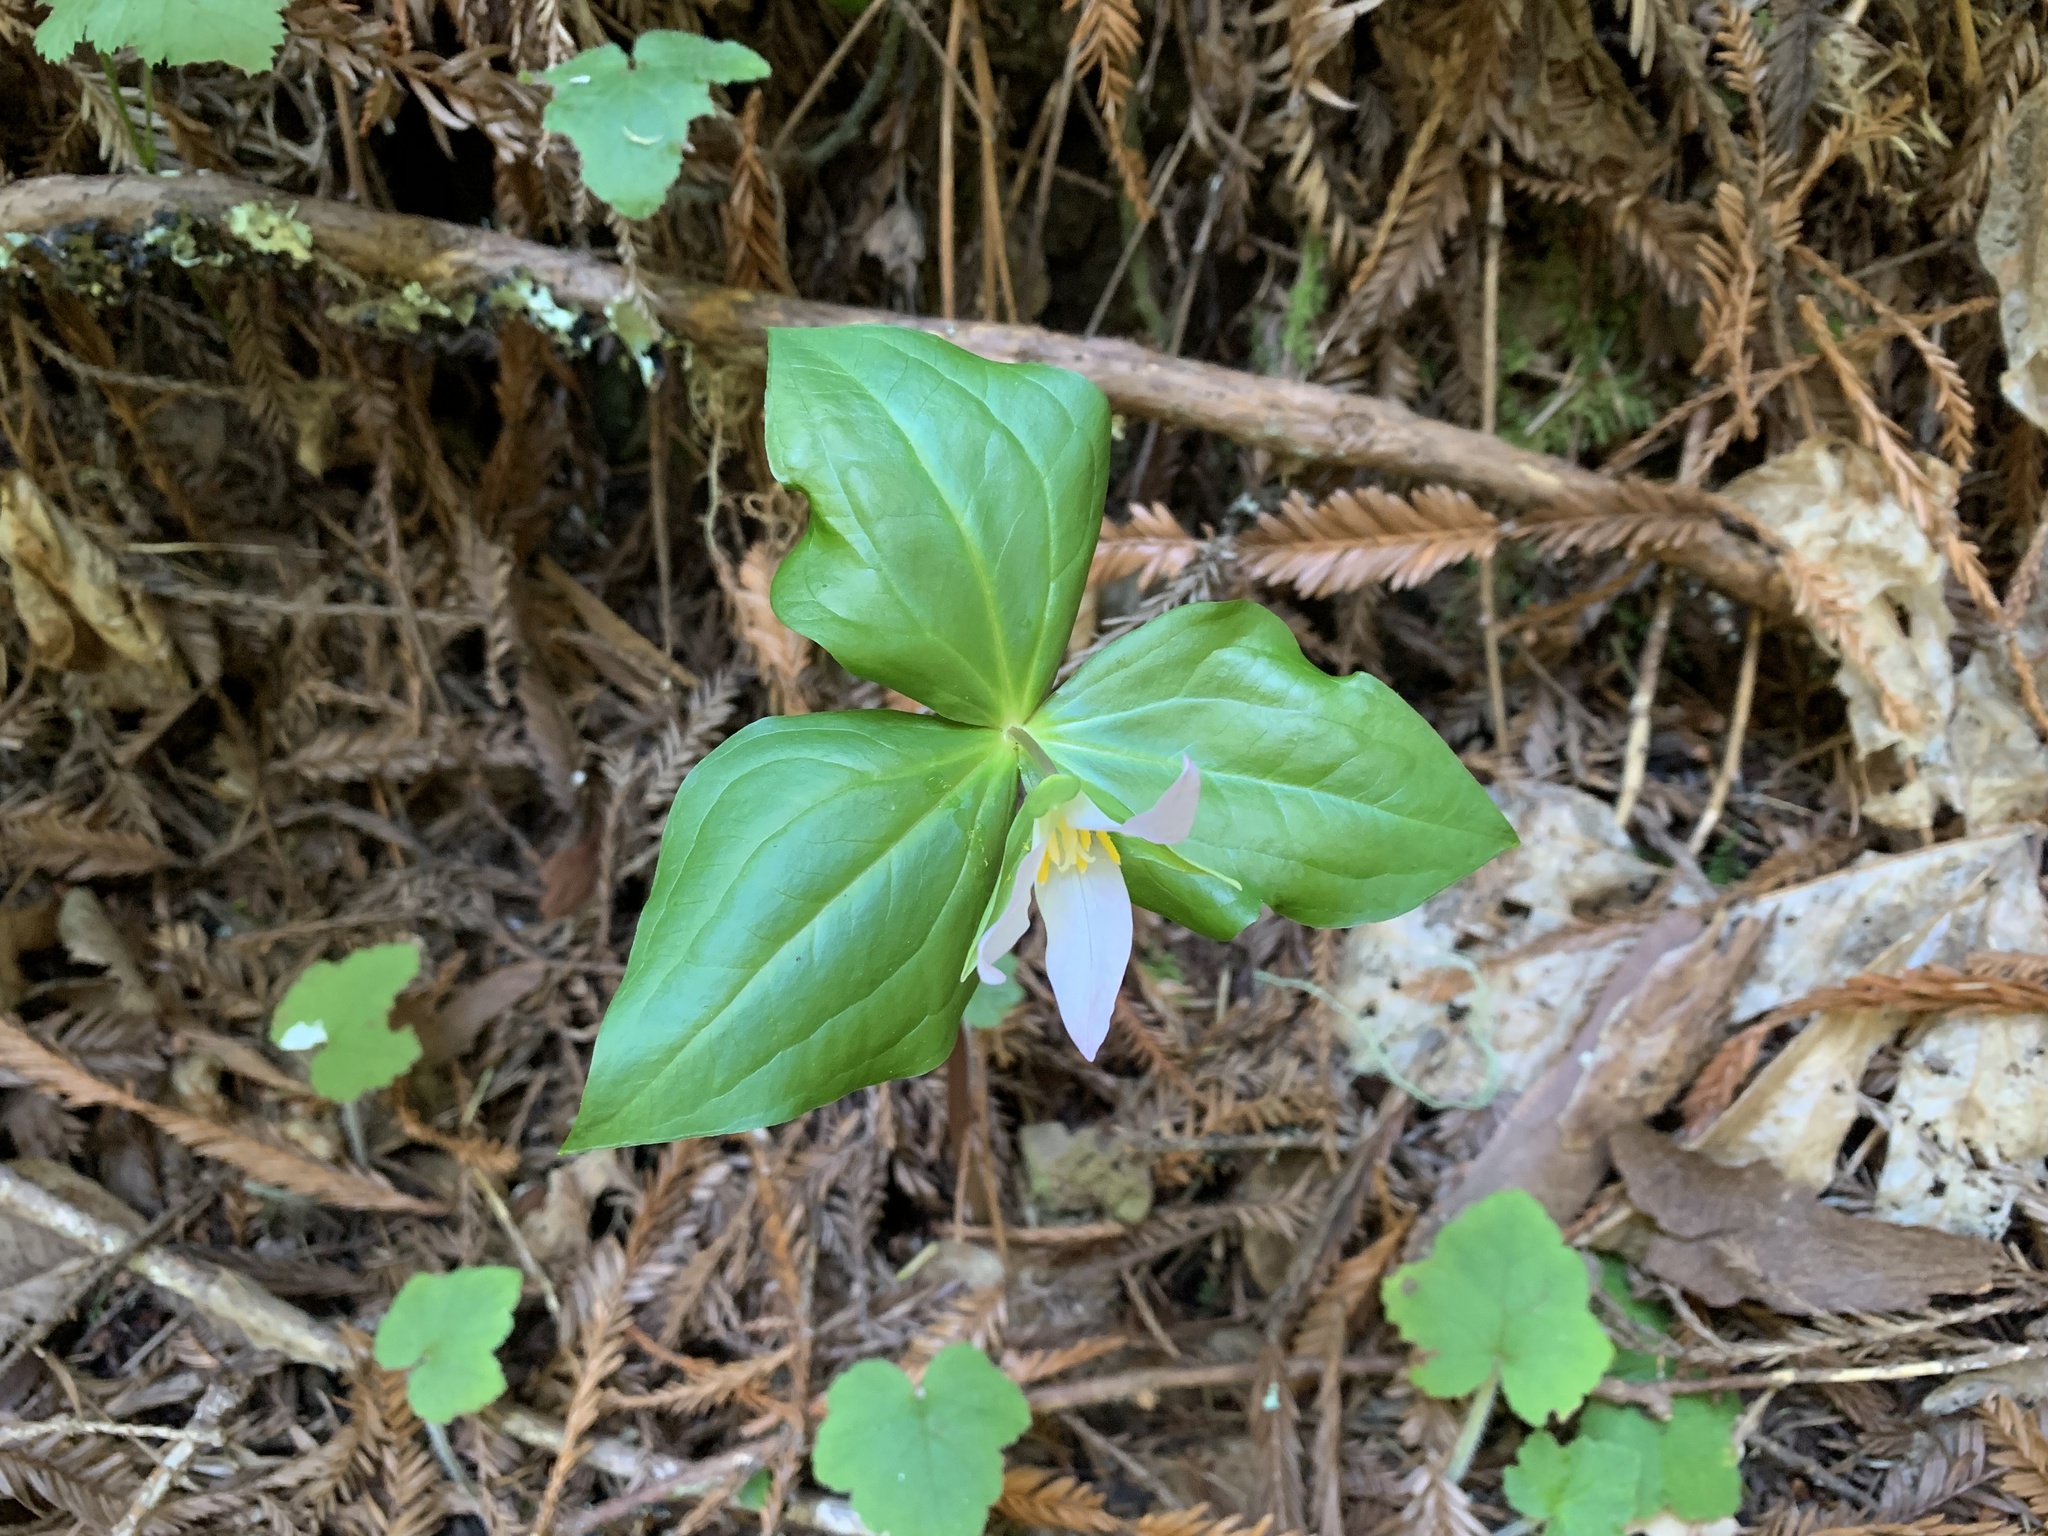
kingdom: Plantae
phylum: Tracheophyta
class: Liliopsida
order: Liliales
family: Melanthiaceae
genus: Trillium
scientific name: Trillium ovatum
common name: Pacific trillium
